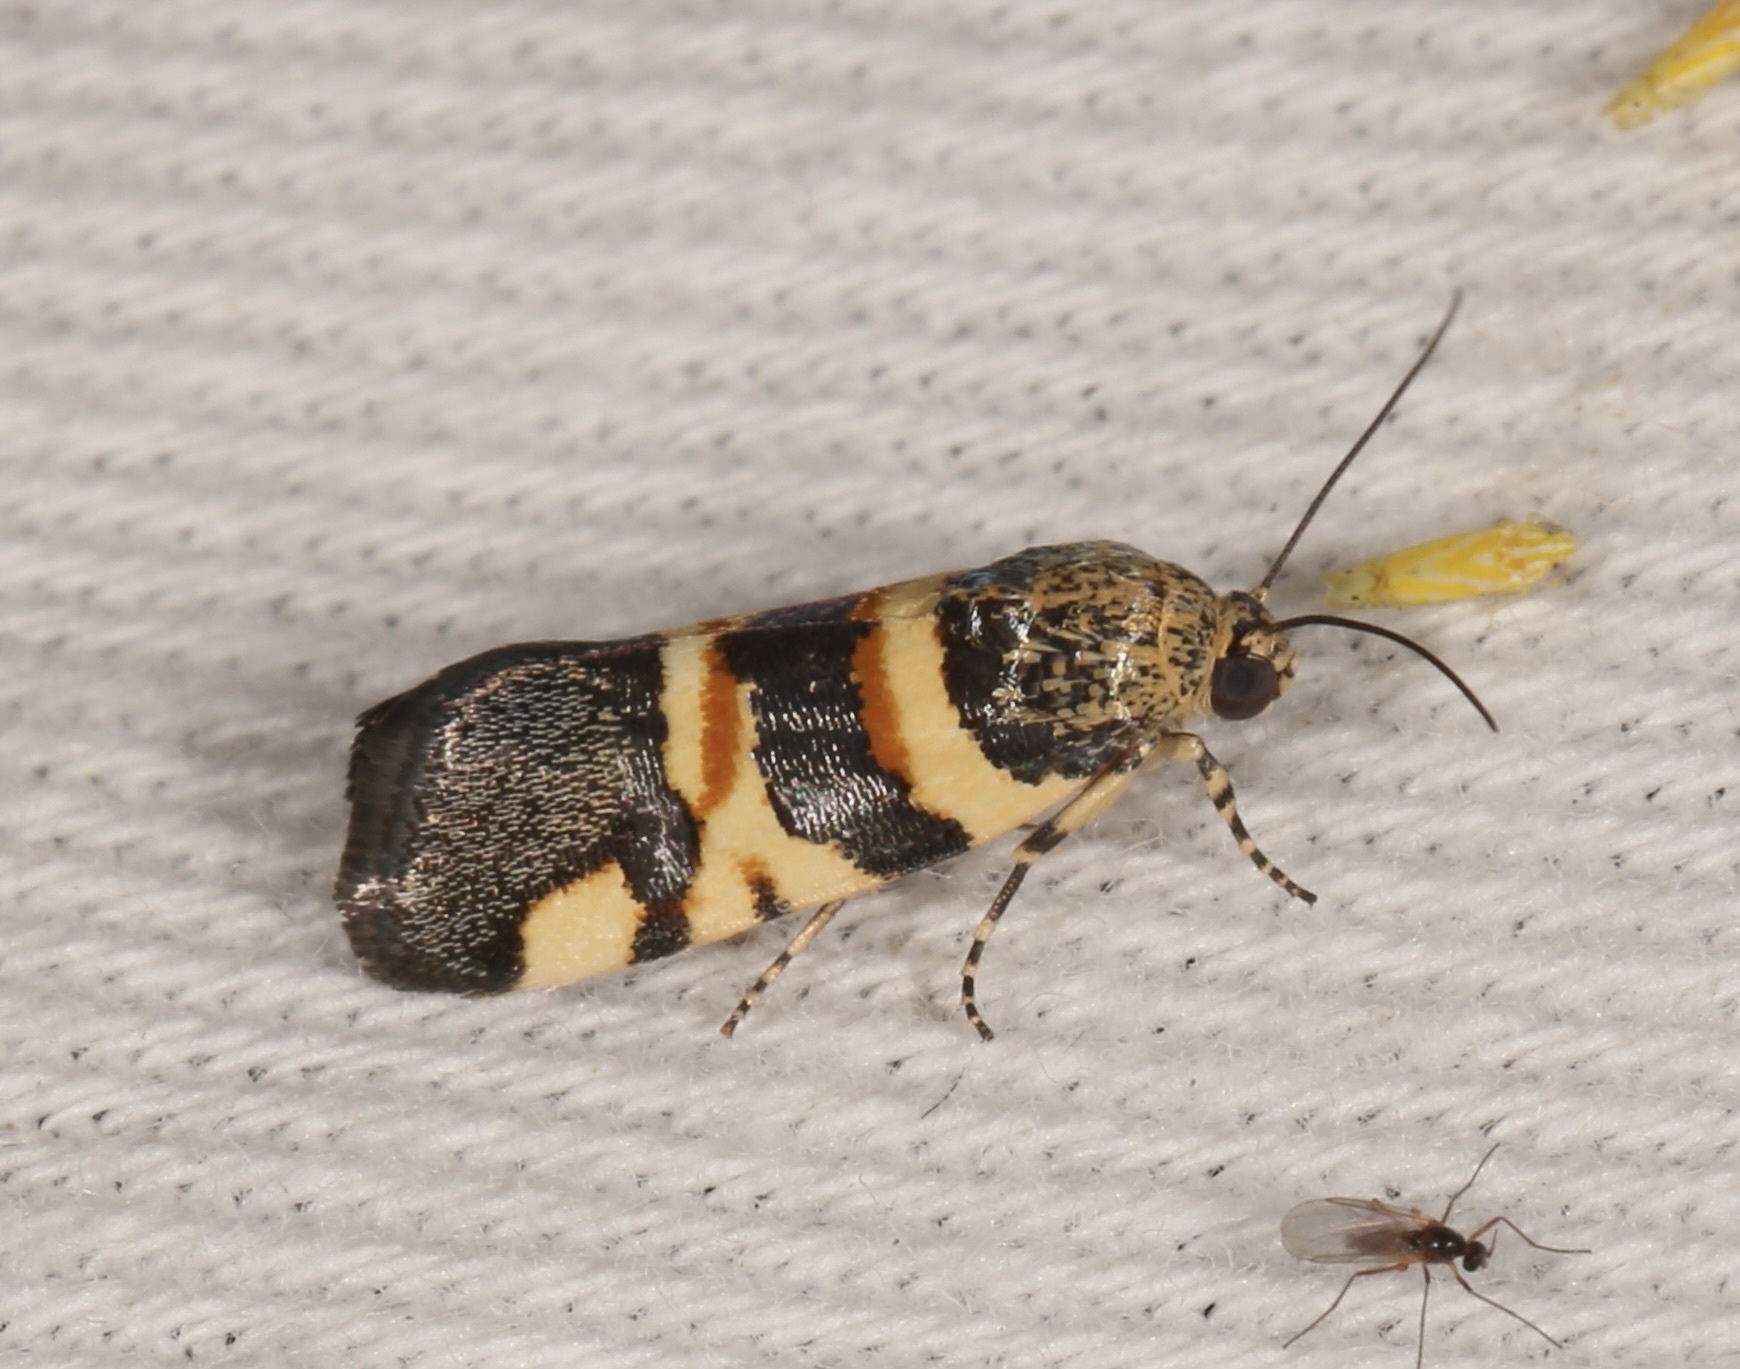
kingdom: Animalia
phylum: Arthropoda
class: Insecta
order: Lepidoptera
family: Noctuidae
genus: Spragueia
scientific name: Spragueia funeralis
